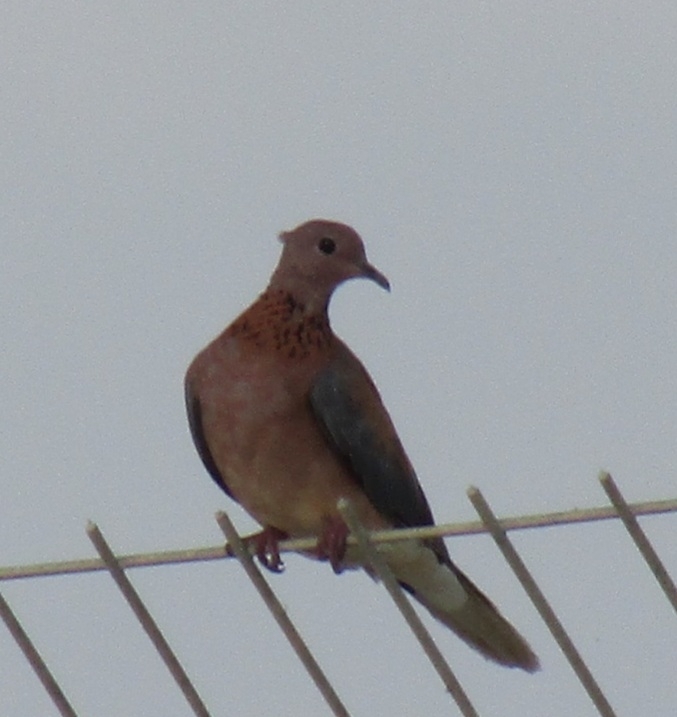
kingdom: Animalia
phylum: Chordata
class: Aves
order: Columbiformes
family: Columbidae
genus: Spilopelia
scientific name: Spilopelia senegalensis
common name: Laughing dove
